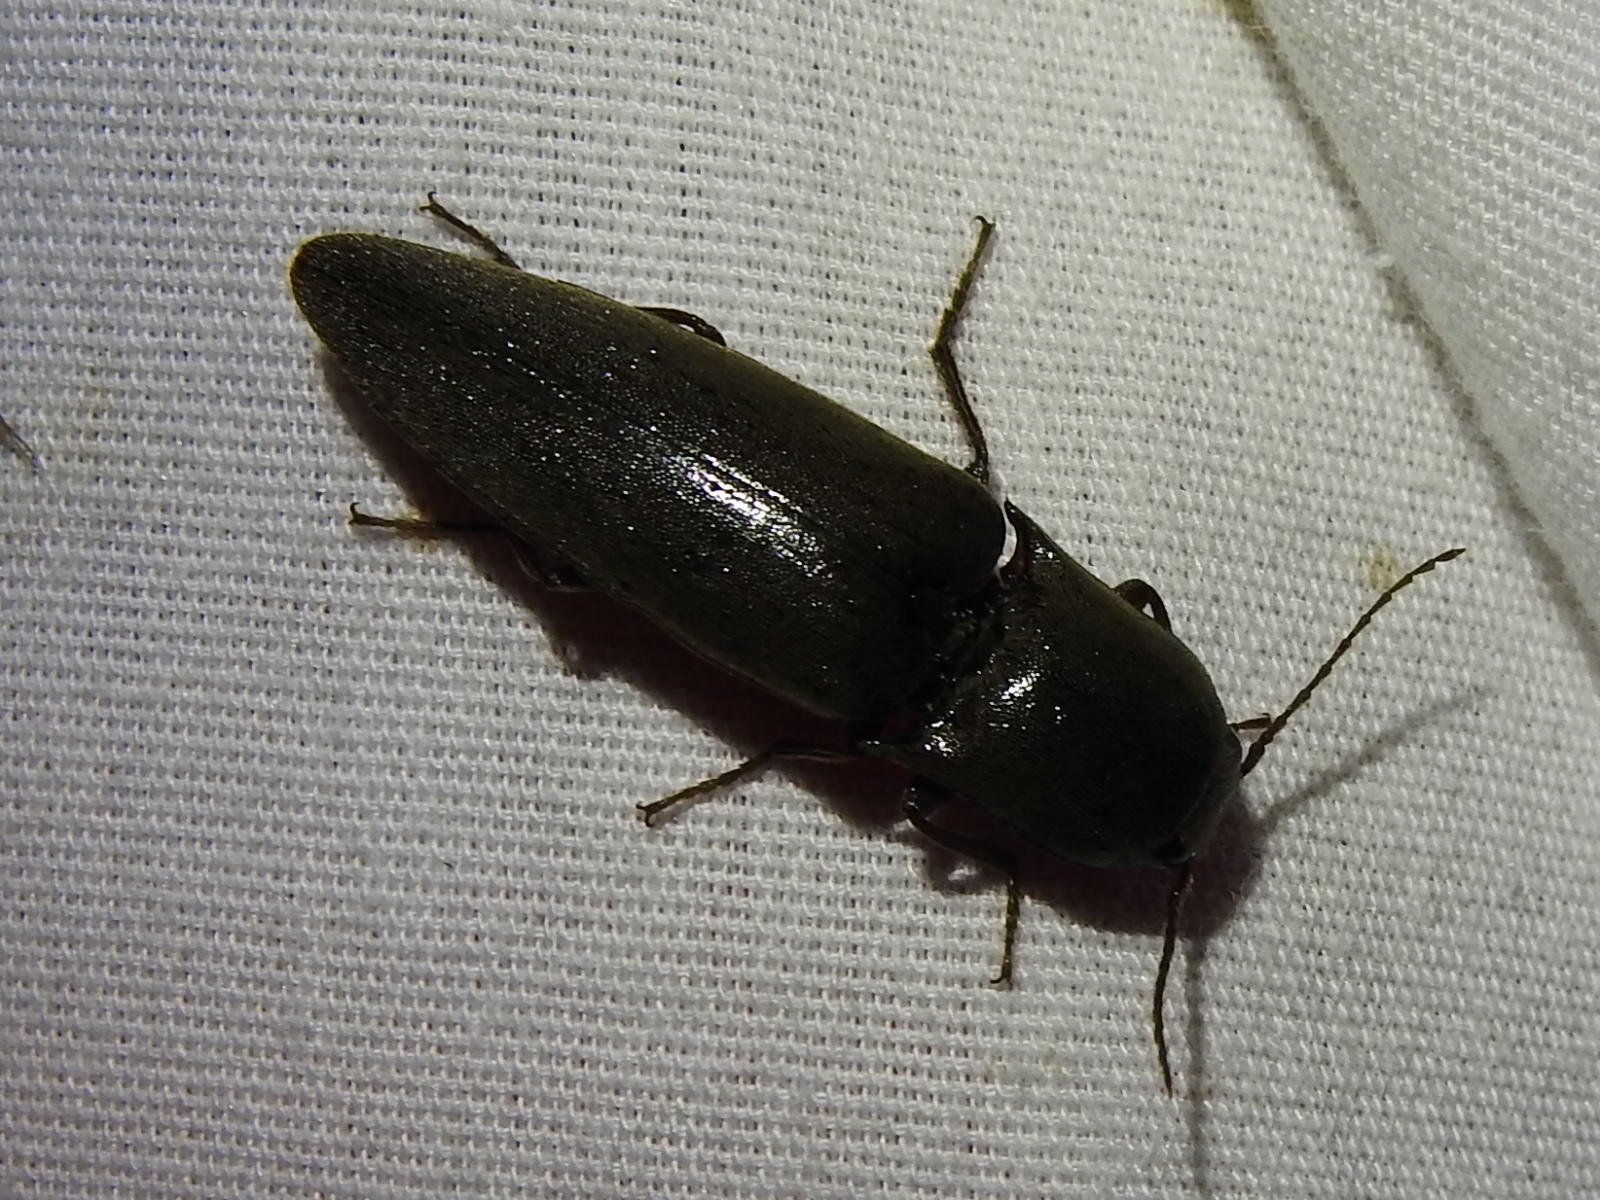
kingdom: Animalia
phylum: Arthropoda
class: Insecta
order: Coleoptera
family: Elateridae
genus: Orthostethus
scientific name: Orthostethus infuscatus
